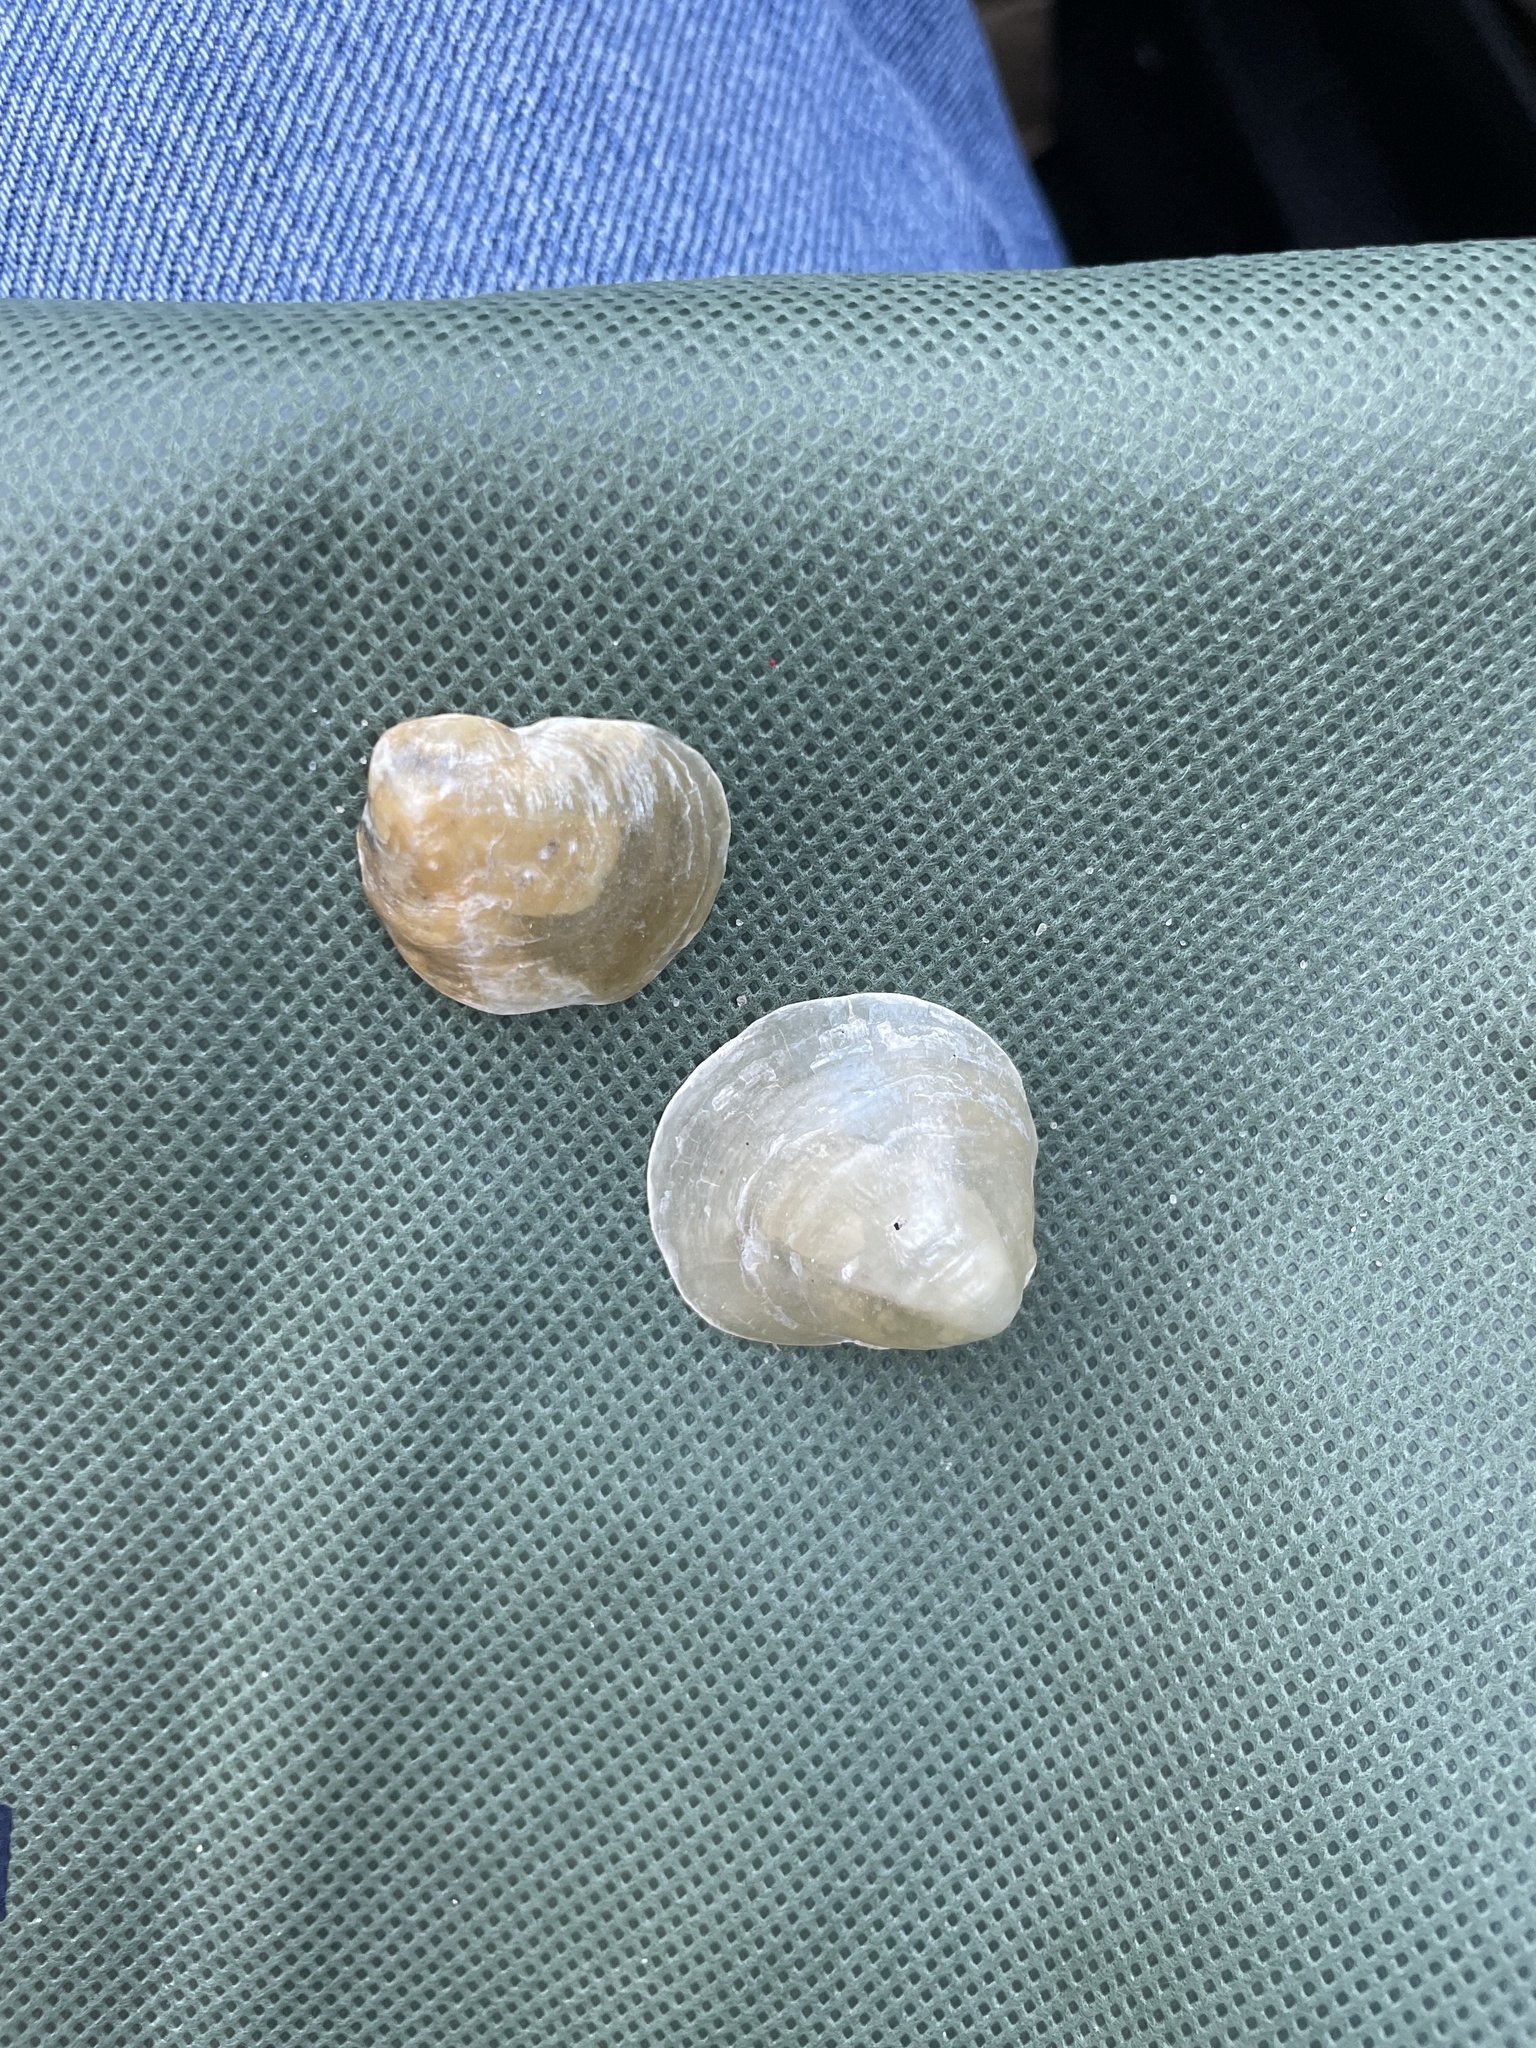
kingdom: Animalia
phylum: Mollusca
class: Bivalvia
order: Pectinida
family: Anomiidae
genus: Anomia
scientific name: Anomia simplex
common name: Common jingle shell
